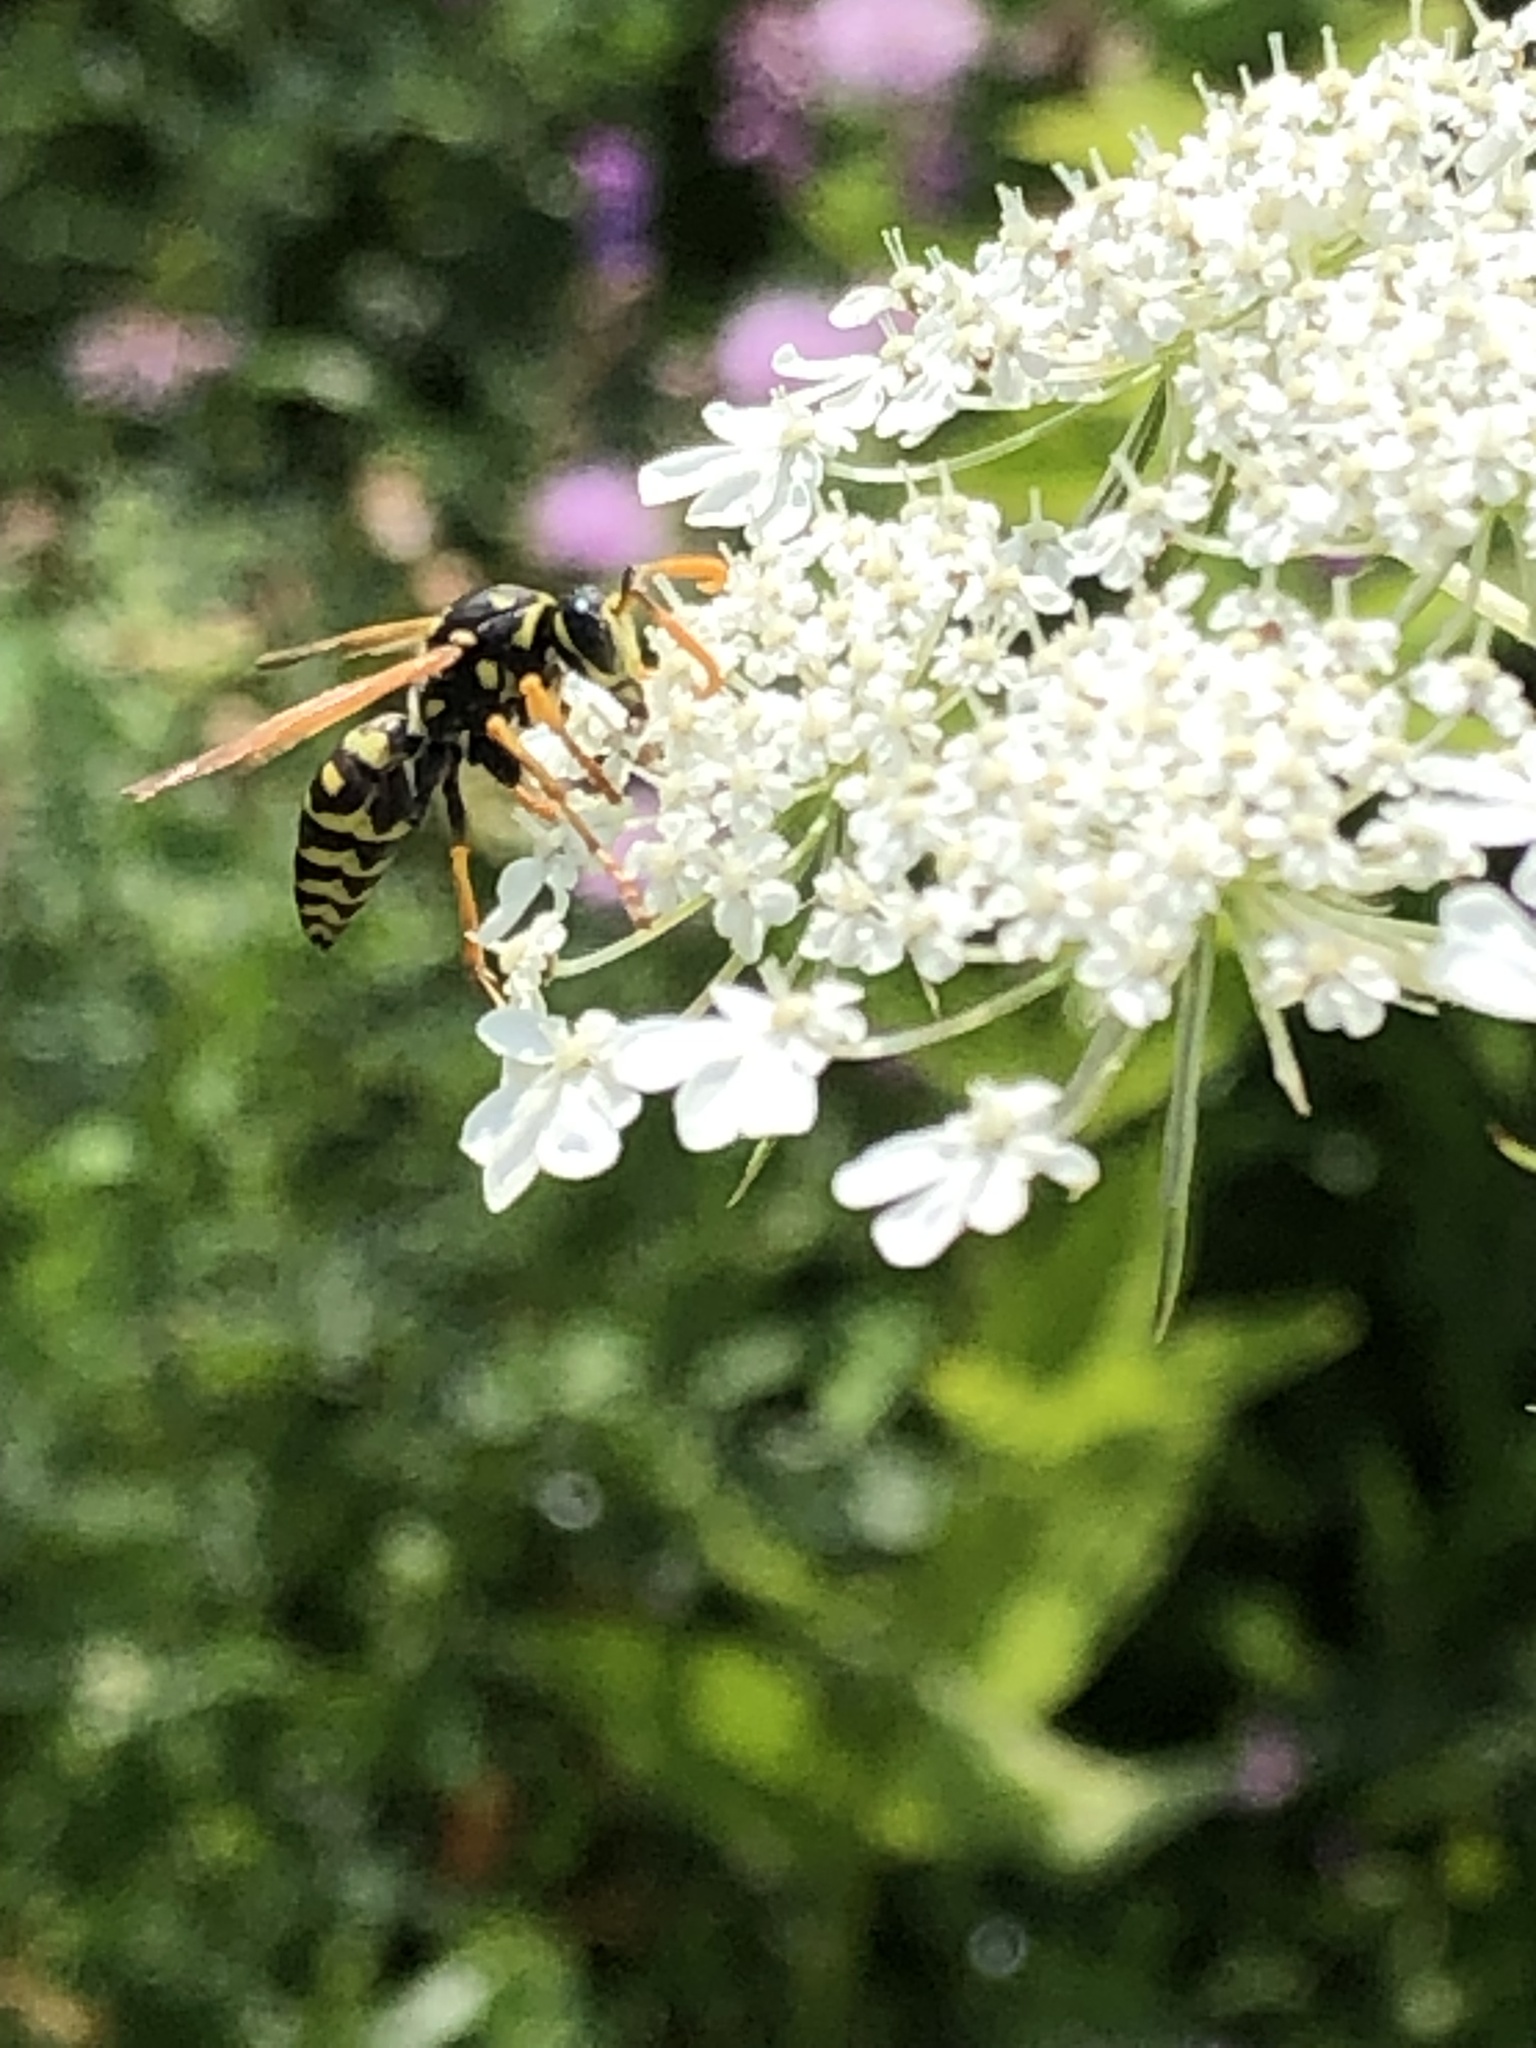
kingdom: Animalia
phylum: Arthropoda
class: Insecta
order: Hymenoptera
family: Eumenidae
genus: Polistes
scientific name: Polistes dominula
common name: Paper wasp
